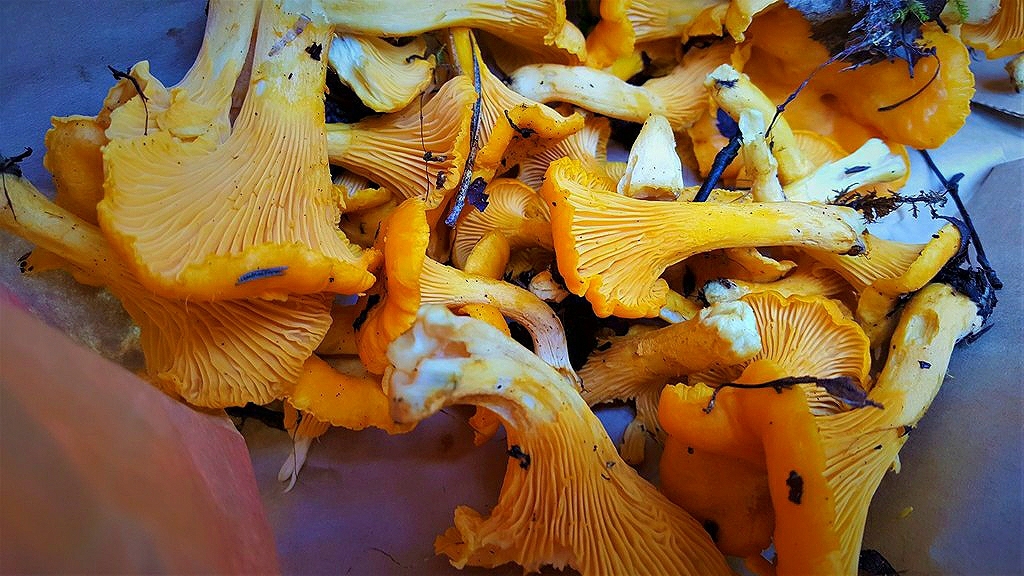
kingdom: Fungi
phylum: Basidiomycota
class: Agaricomycetes
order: Cantharellales
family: Hydnaceae
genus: Cantharellus
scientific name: Cantharellus cibarius
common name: Chanterelle
